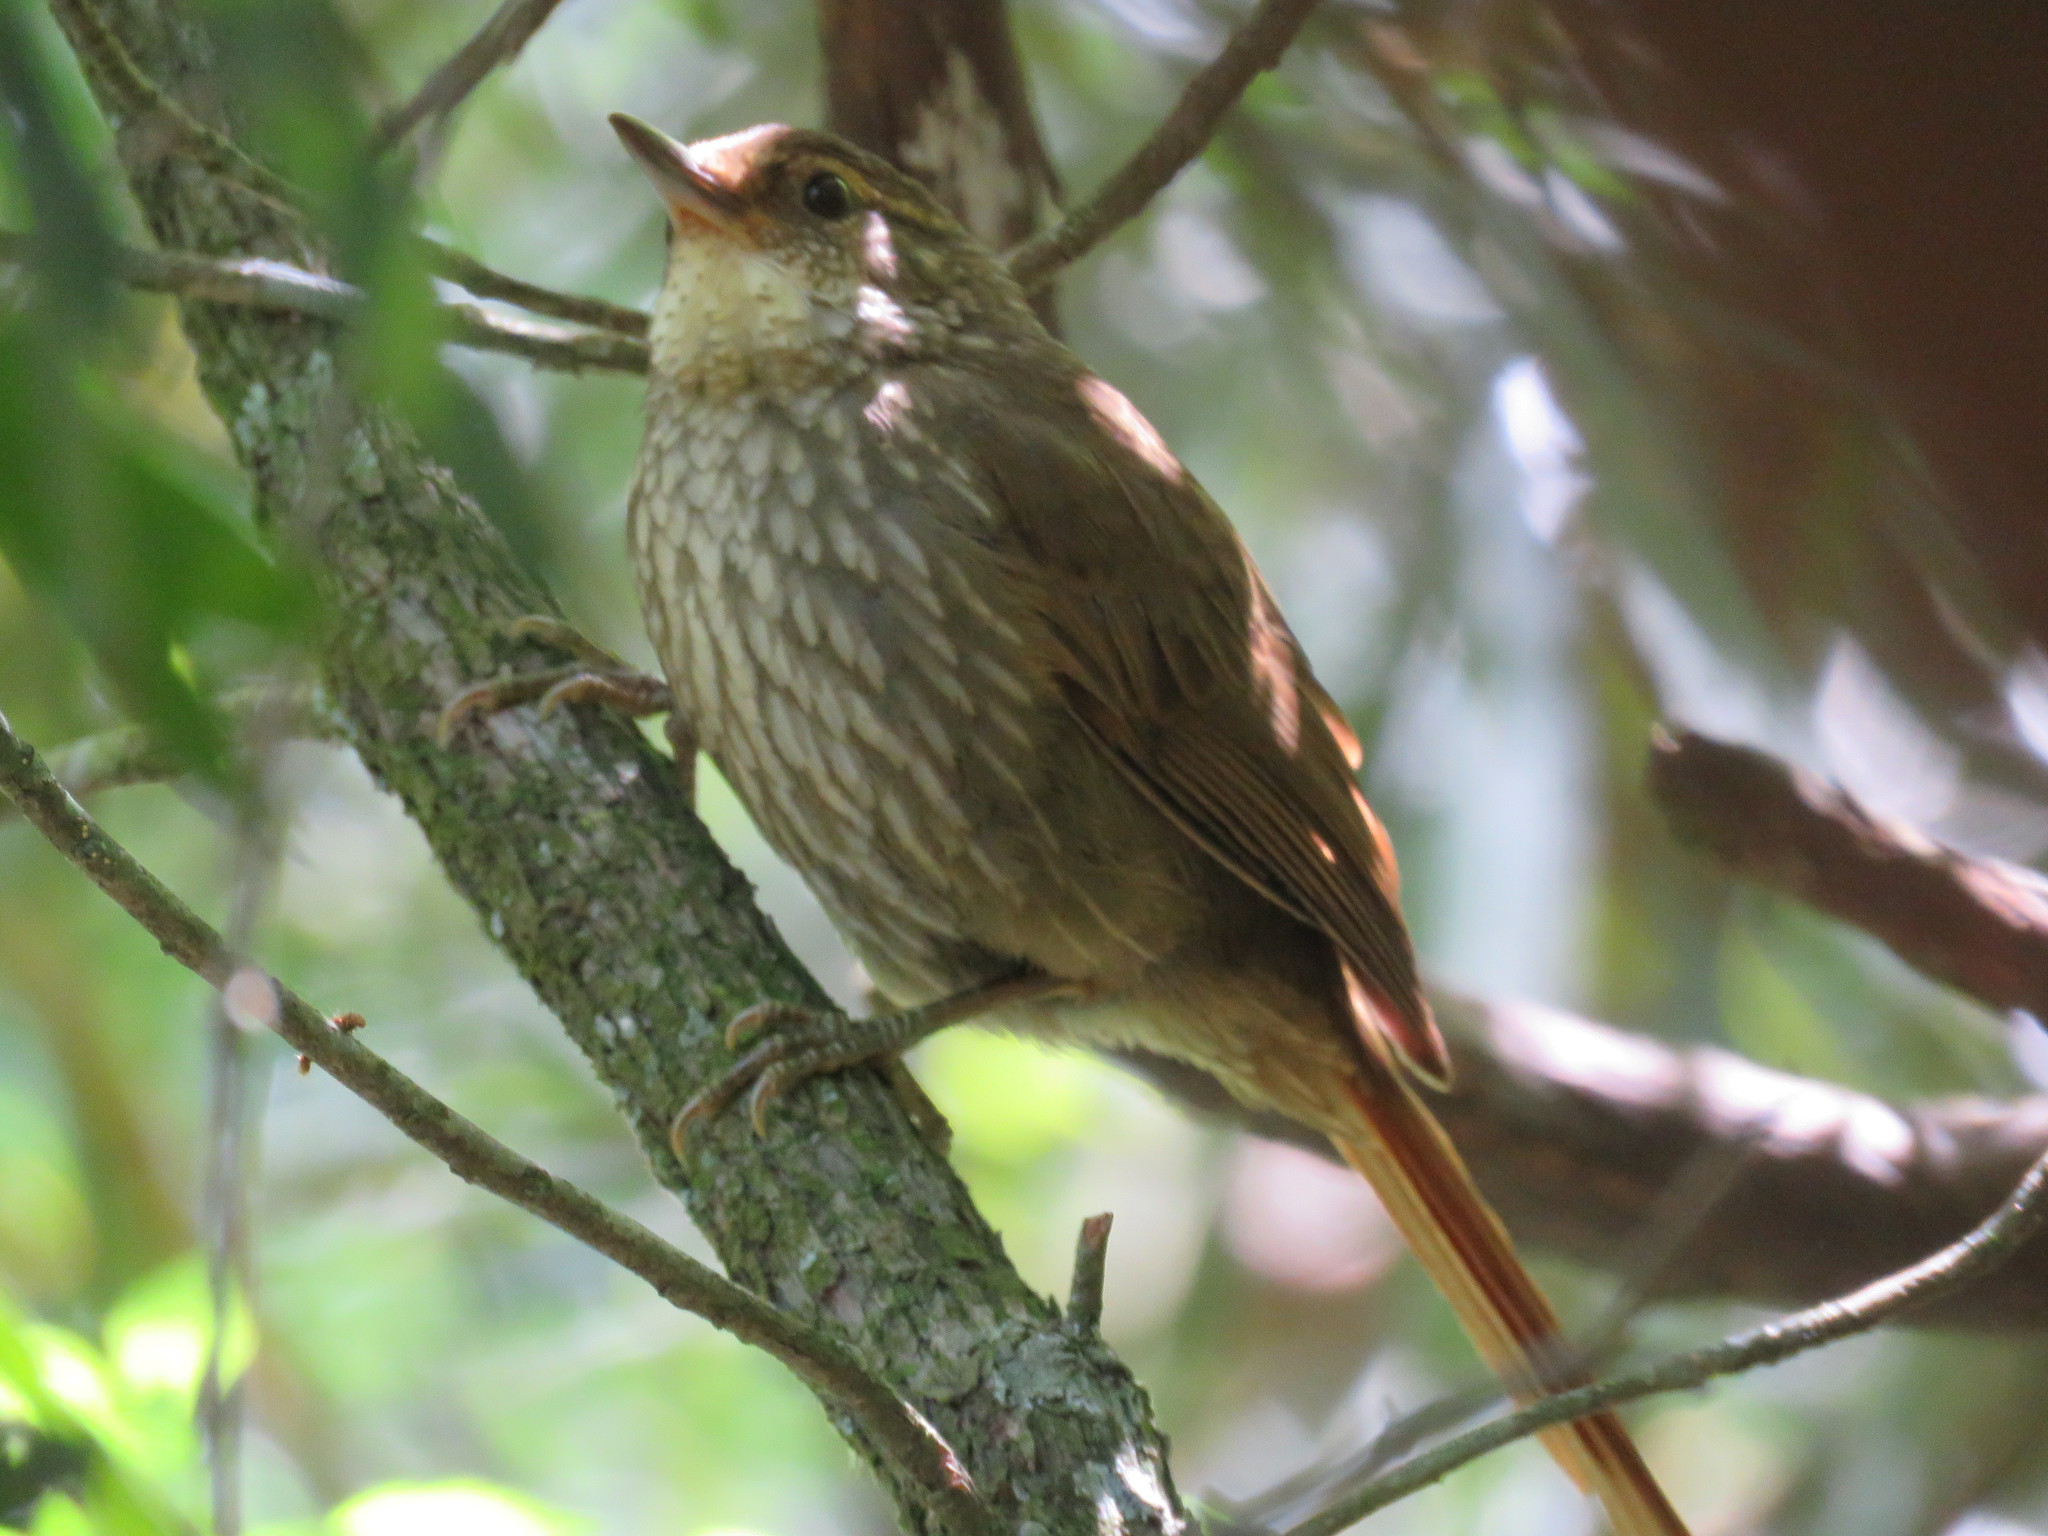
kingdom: Animalia
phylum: Chordata
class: Aves
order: Passeriformes
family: Furnariidae
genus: Syndactyla
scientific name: Syndactyla rufosuperciliata
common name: Buff-browed foliage-gleaner
